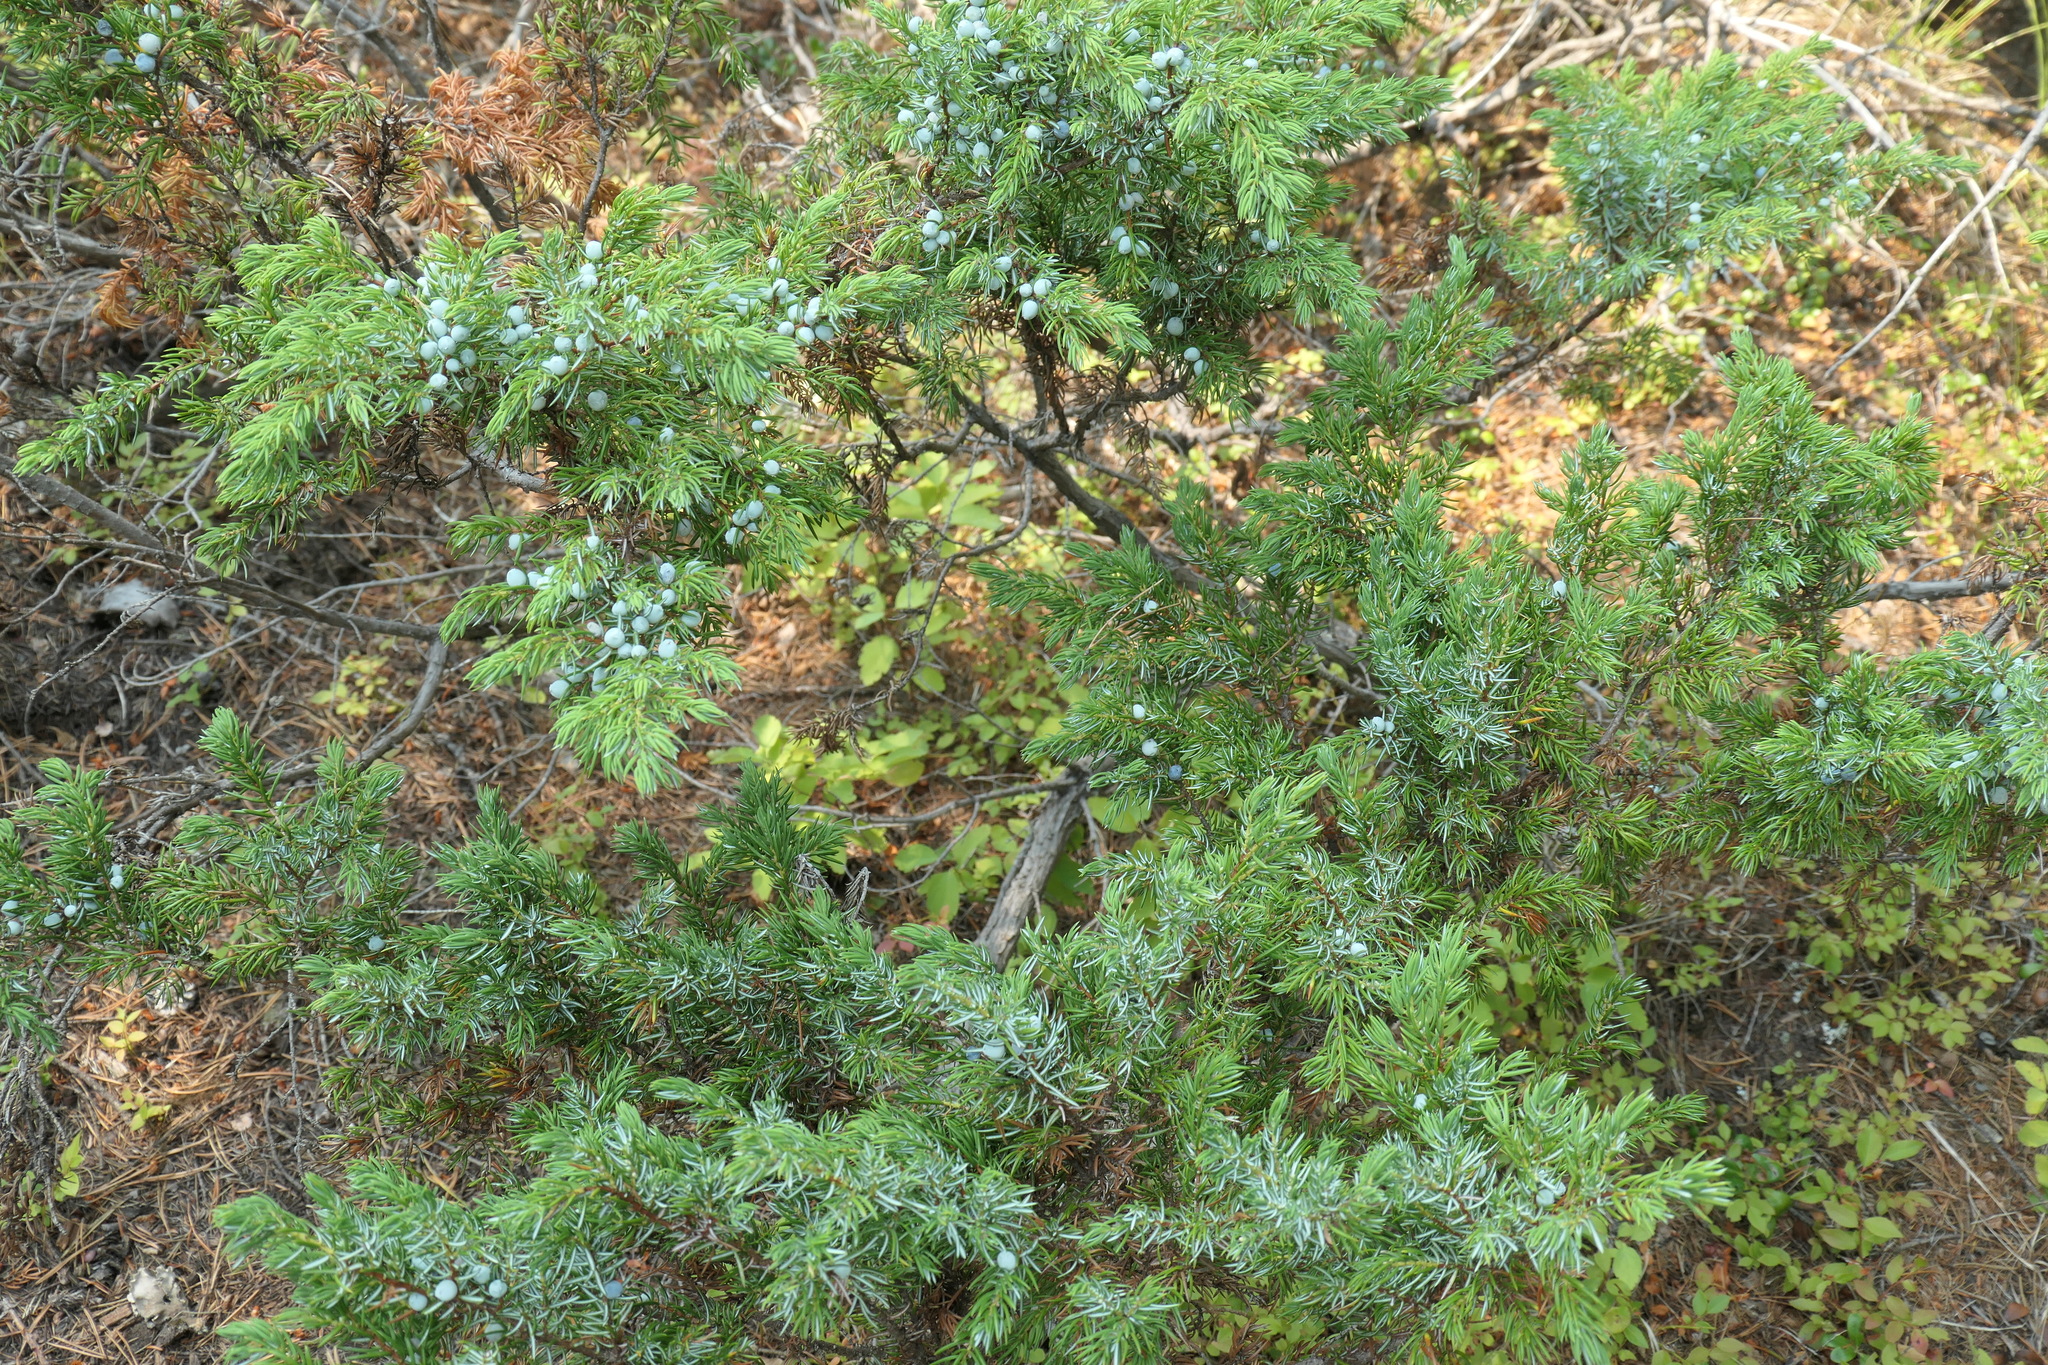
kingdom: Plantae
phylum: Tracheophyta
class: Pinopsida
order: Pinales
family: Cupressaceae
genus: Juniperus
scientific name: Juniperus communis
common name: Common juniper
